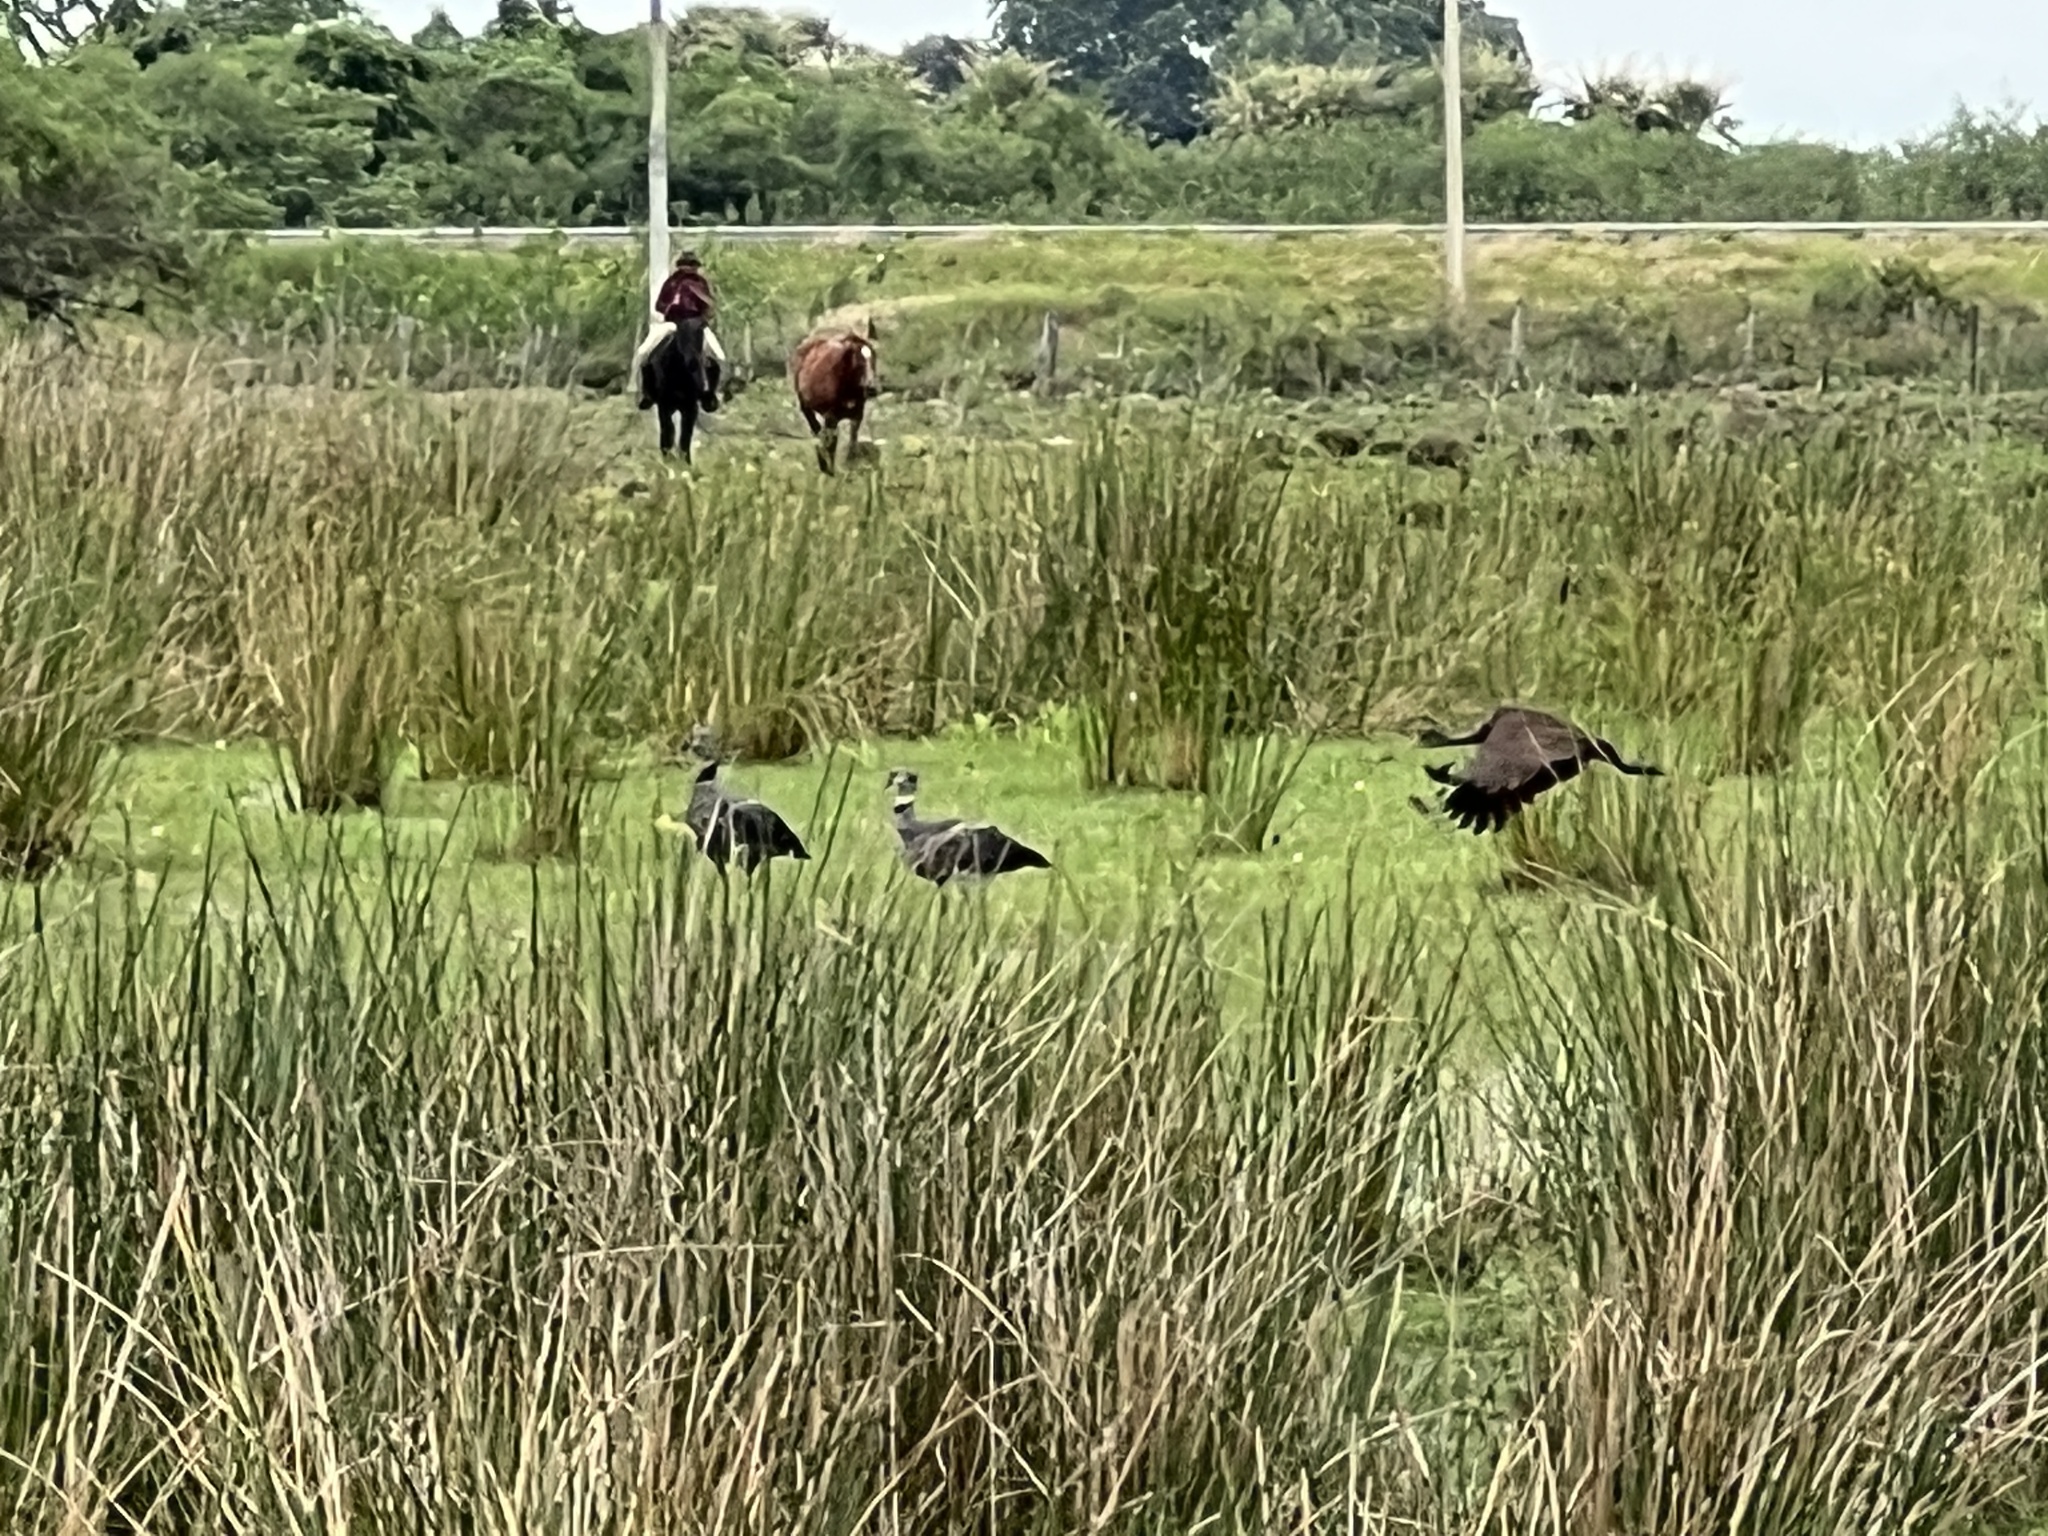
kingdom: Animalia
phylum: Chordata
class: Aves
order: Anseriformes
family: Anhimidae
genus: Chauna
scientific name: Chauna torquata
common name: Southern screamer
